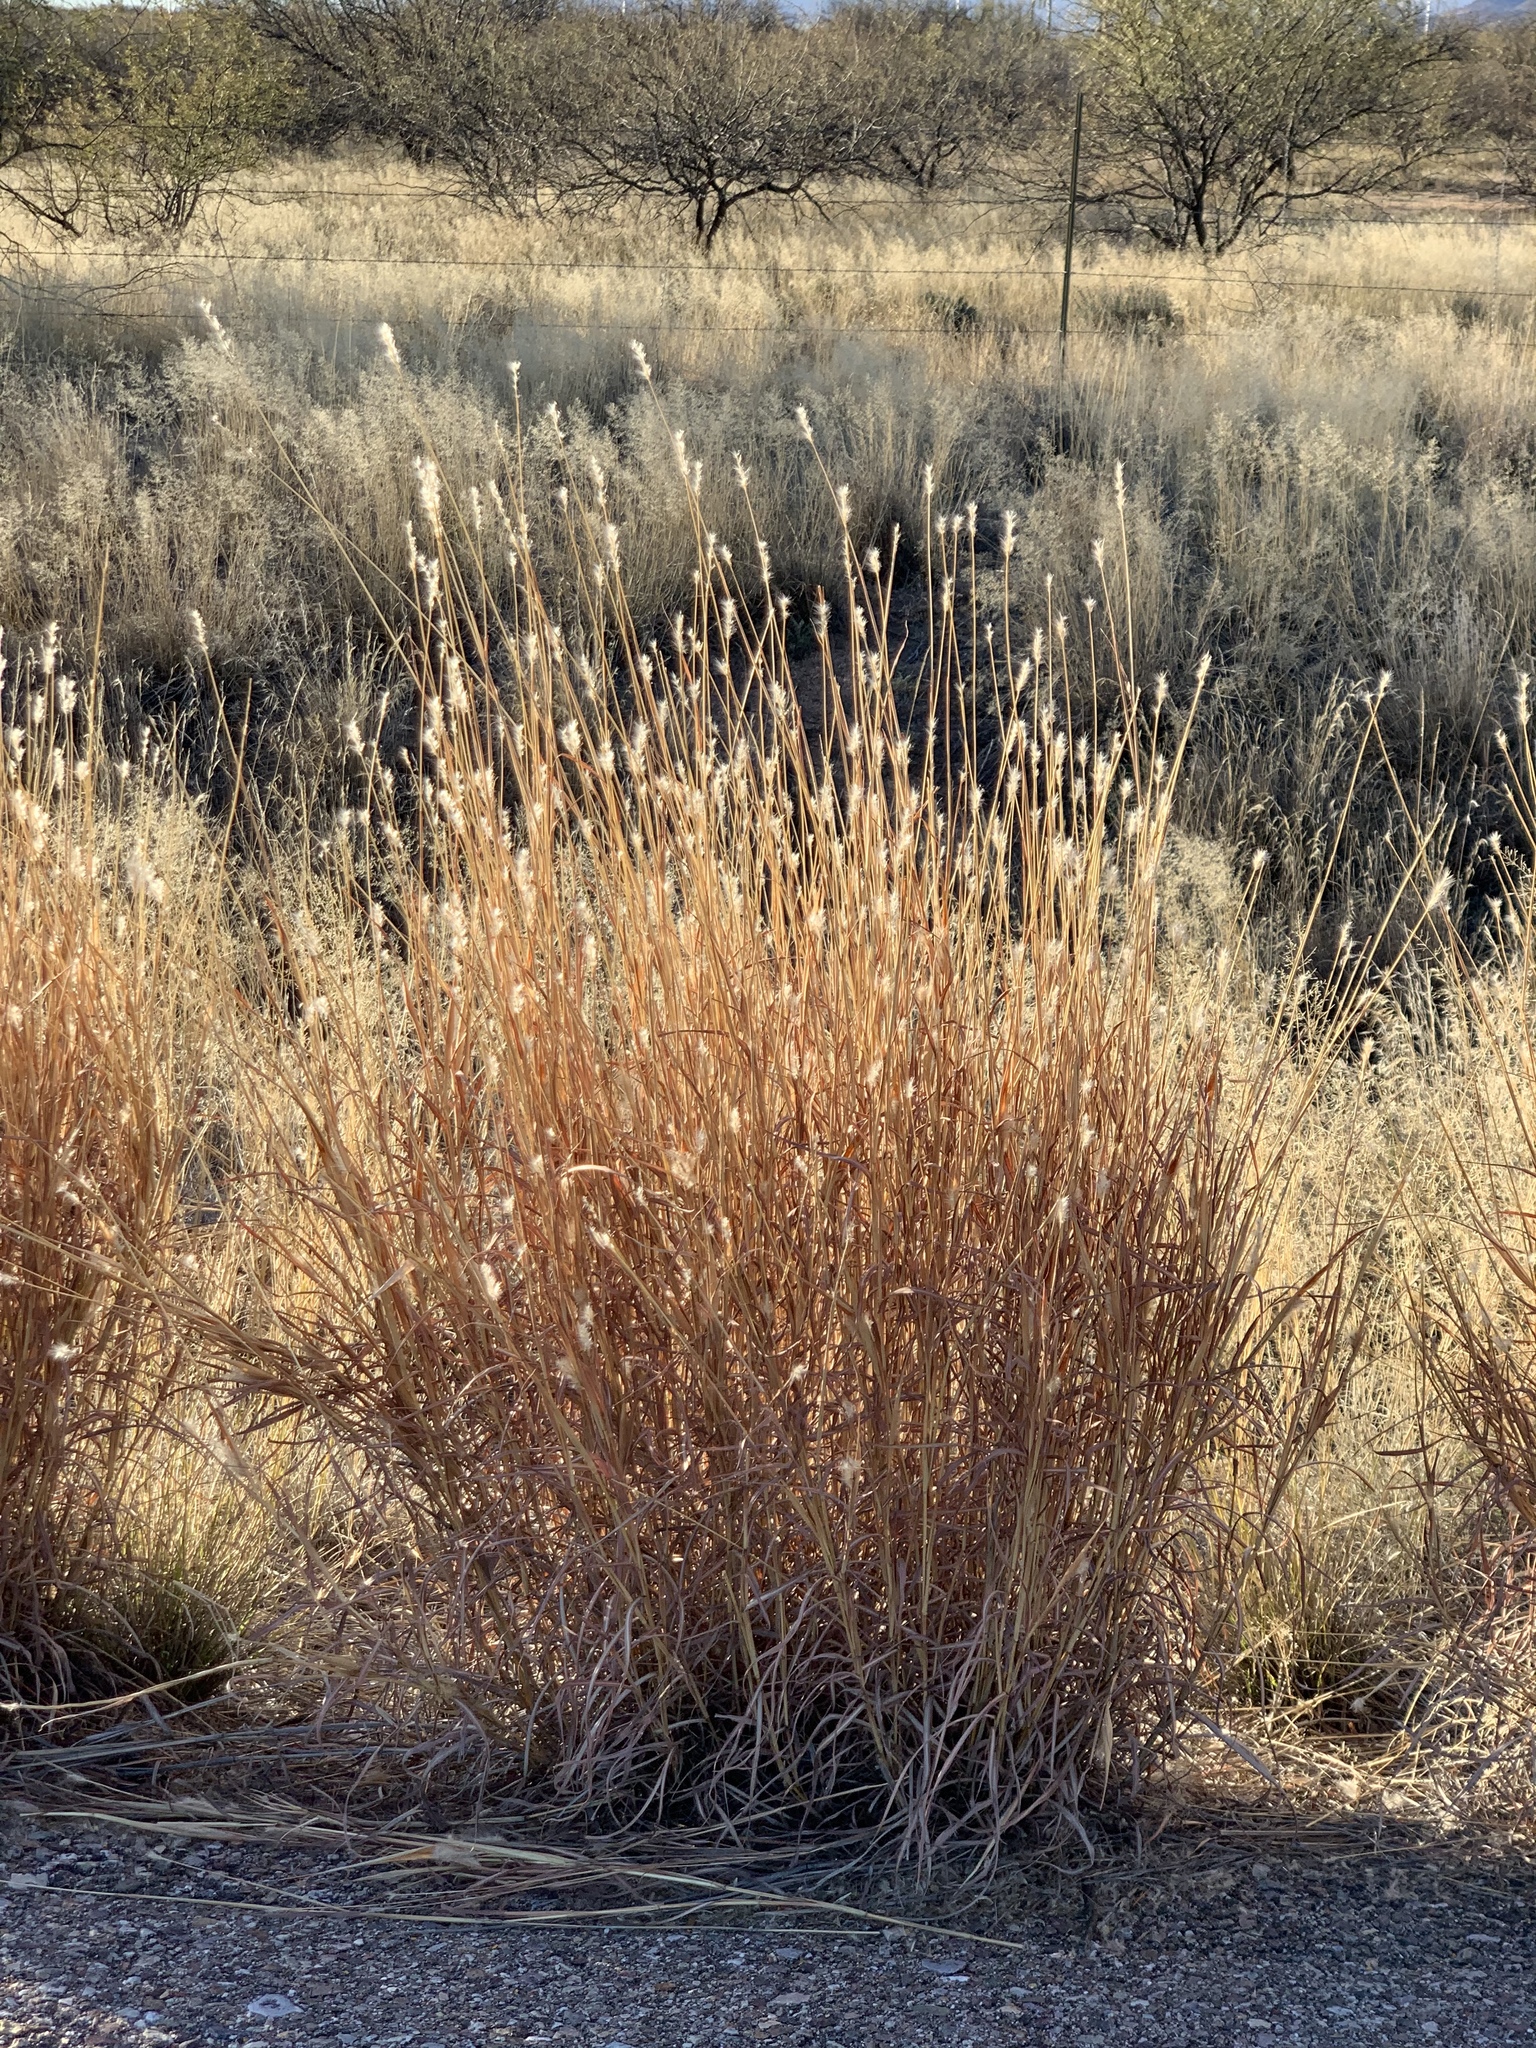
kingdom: Plantae
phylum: Tracheophyta
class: Liliopsida
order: Poales
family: Poaceae
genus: Bothriochloa
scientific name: Bothriochloa barbinodis
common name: Cane bluestem
